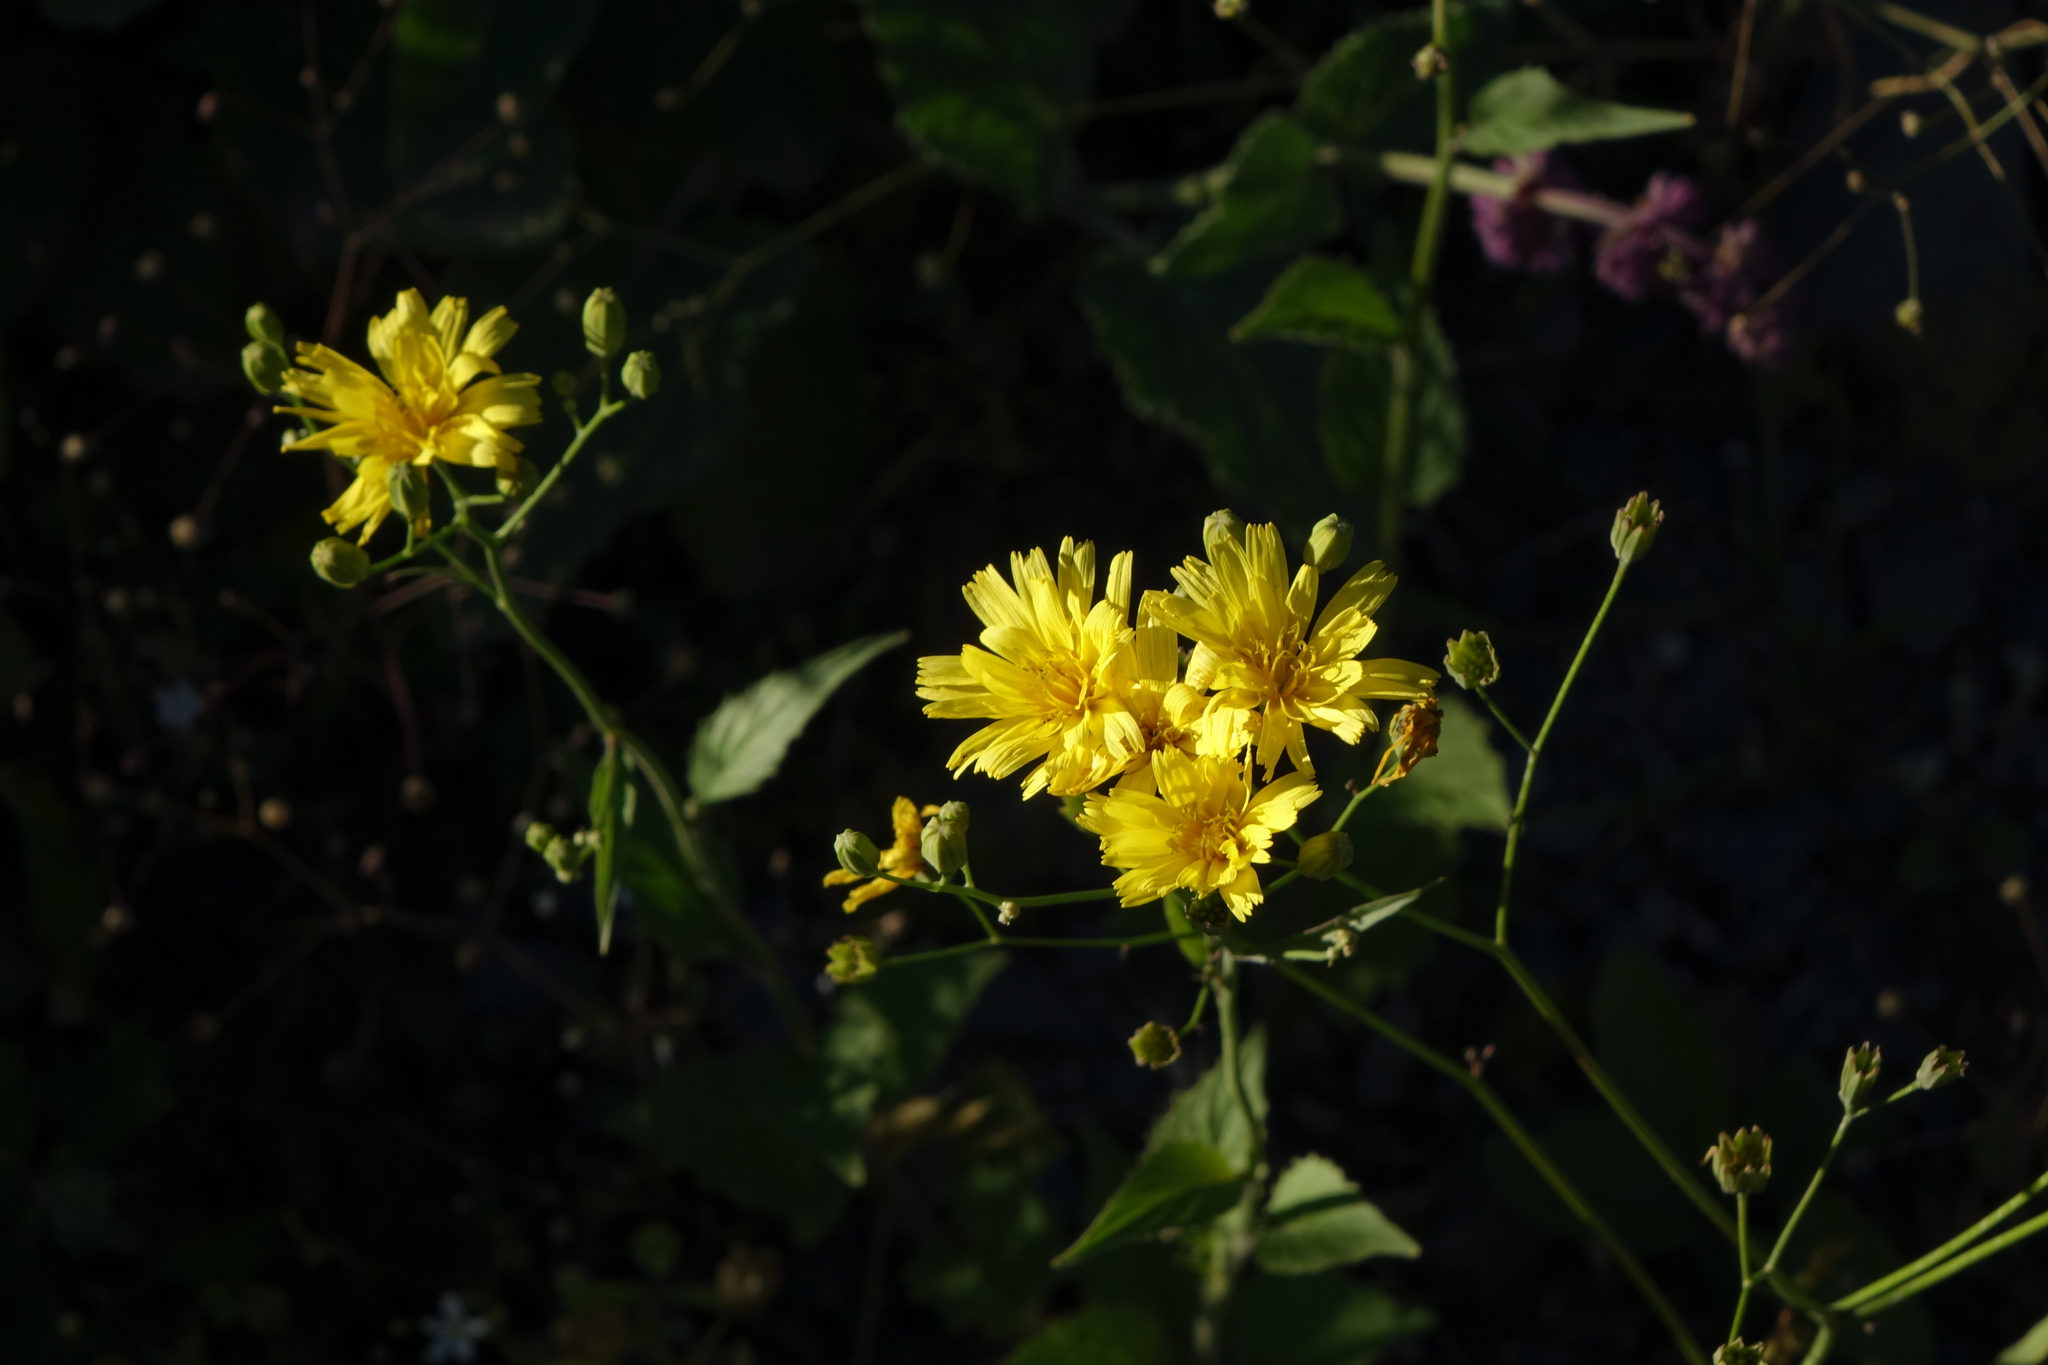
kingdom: Plantae
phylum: Tracheophyta
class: Magnoliopsida
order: Asterales
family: Asteraceae
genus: Lapsana
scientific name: Lapsana communis
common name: Nipplewort
